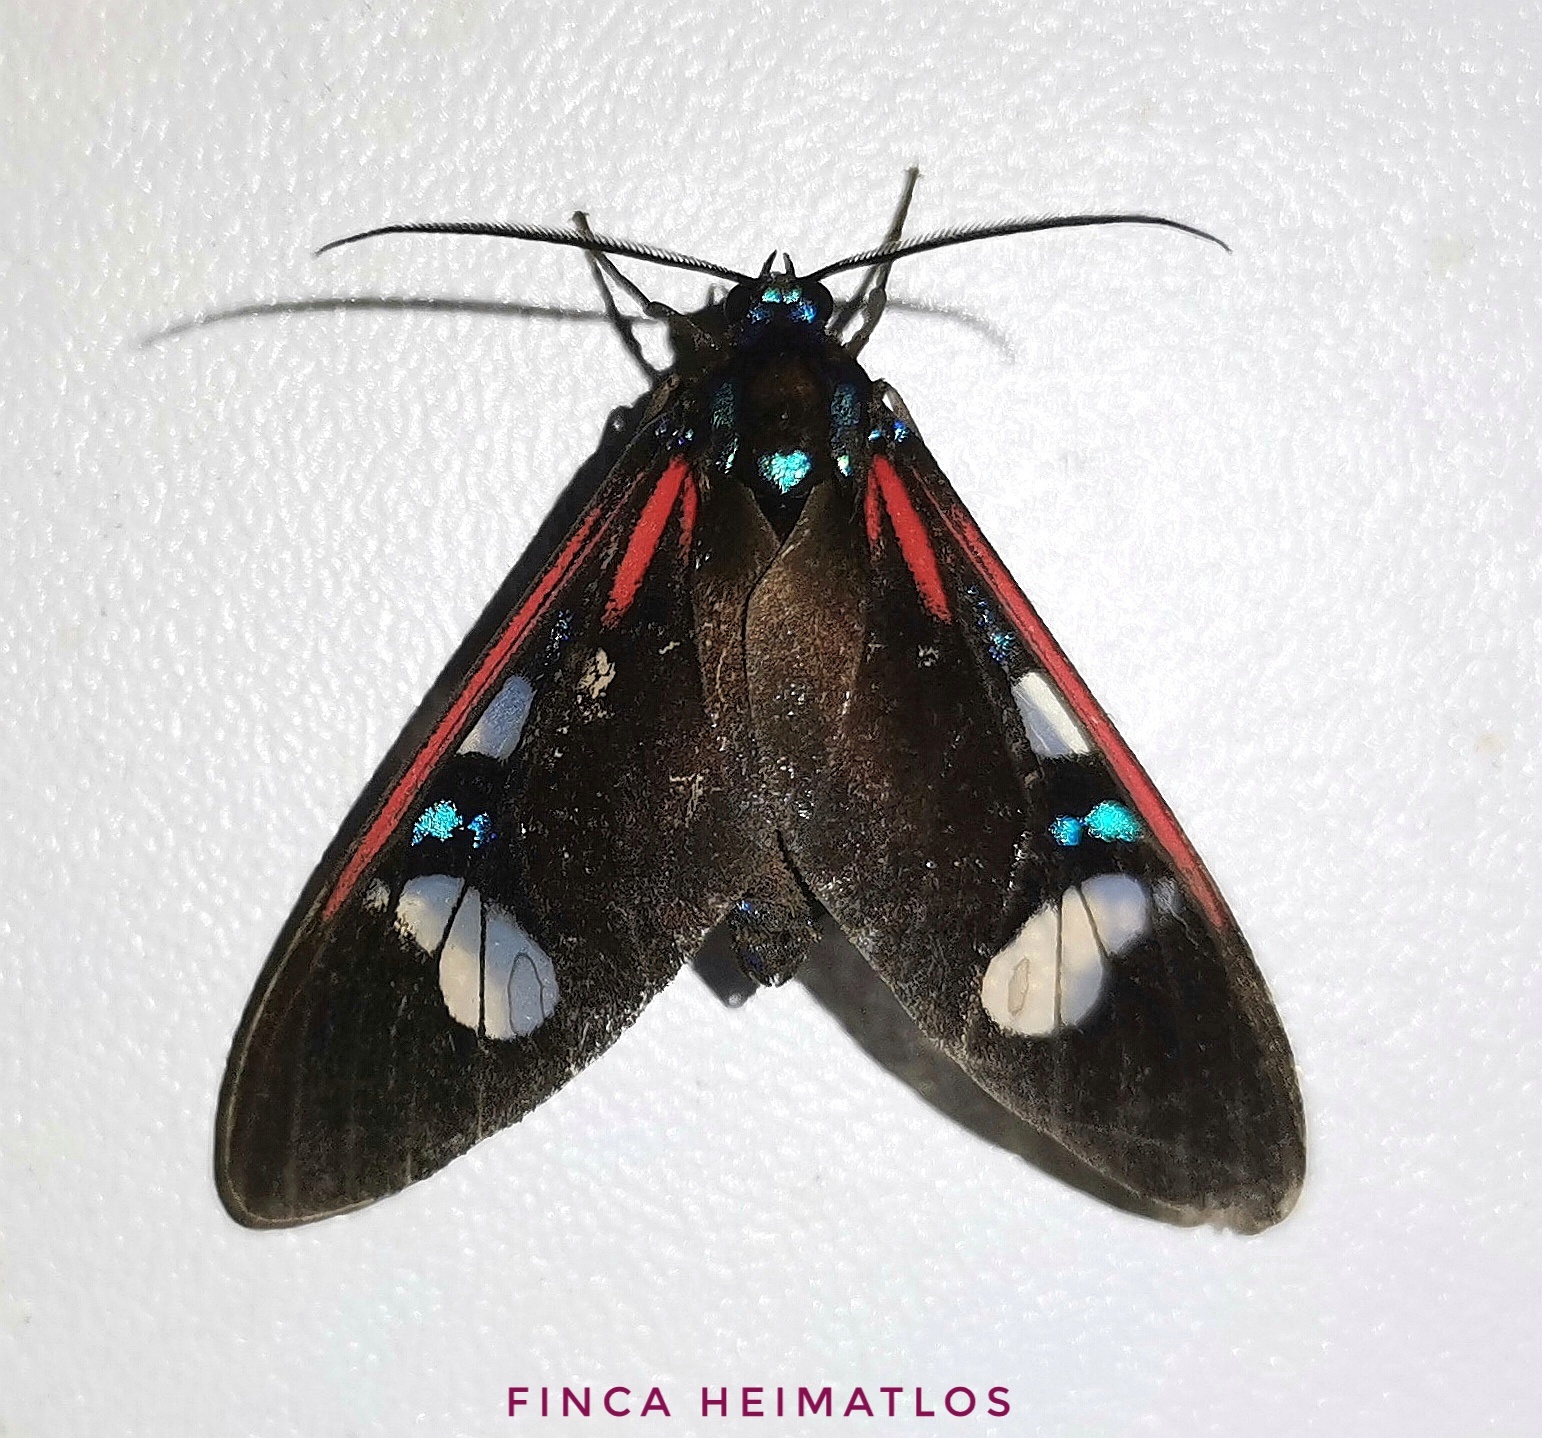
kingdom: Animalia
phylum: Arthropoda
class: Insecta
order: Lepidoptera
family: Erebidae
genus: Euclera
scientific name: Euclera meones
